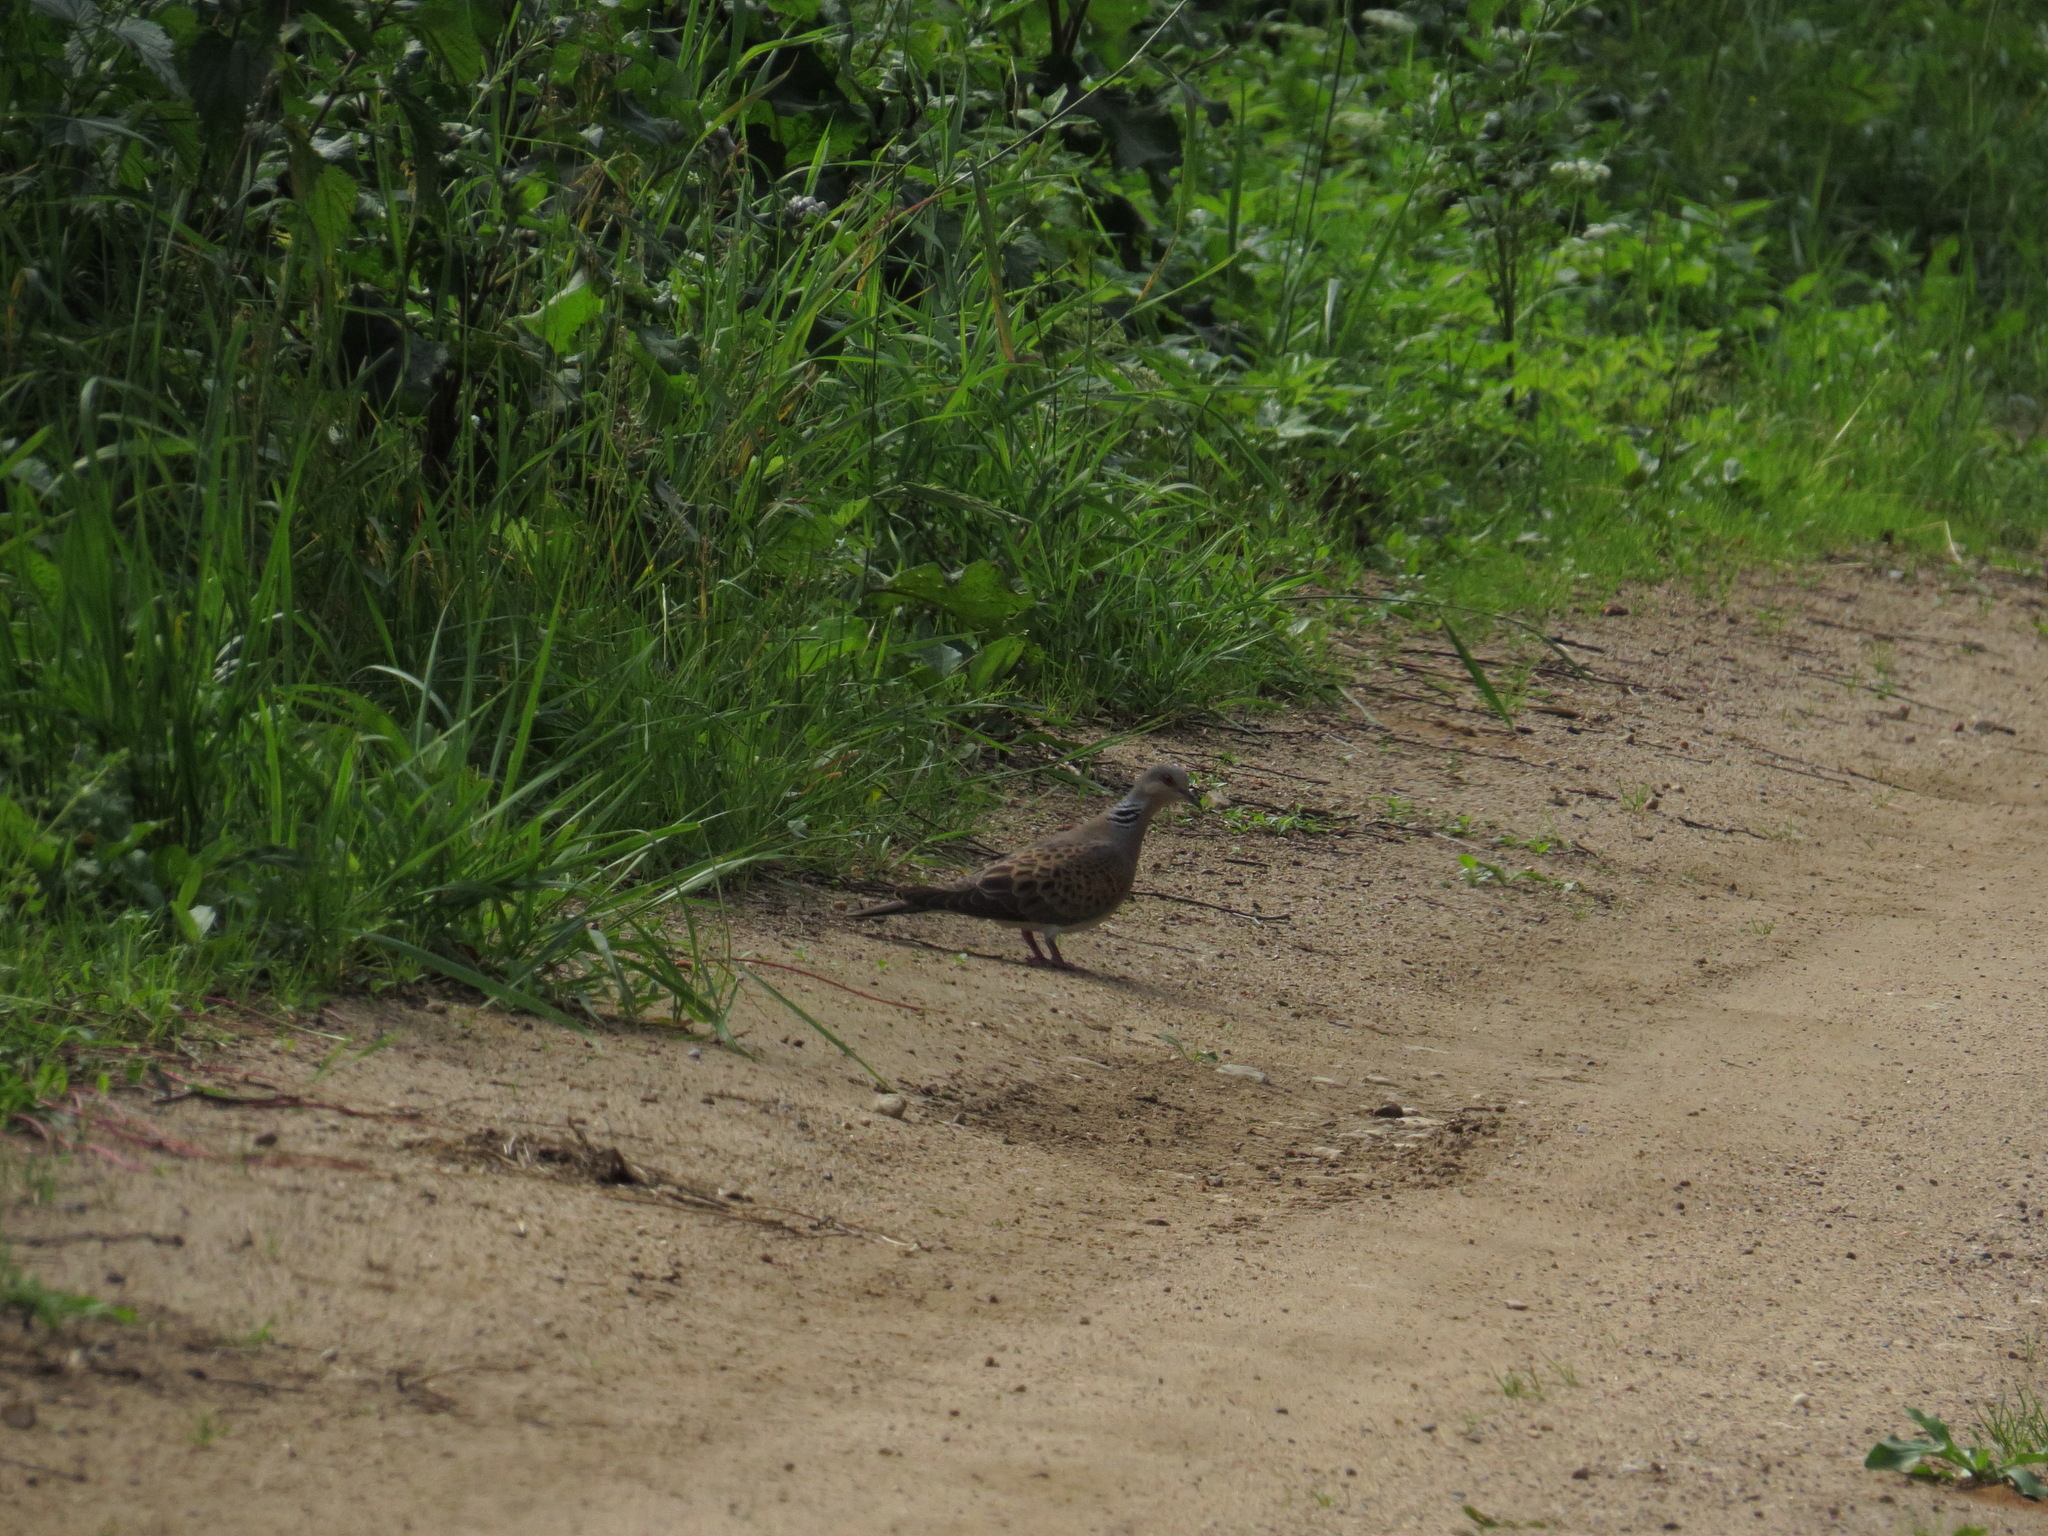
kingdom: Animalia
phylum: Chordata
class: Aves
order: Columbiformes
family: Columbidae
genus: Streptopelia
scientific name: Streptopelia turtur
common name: European turtle dove
